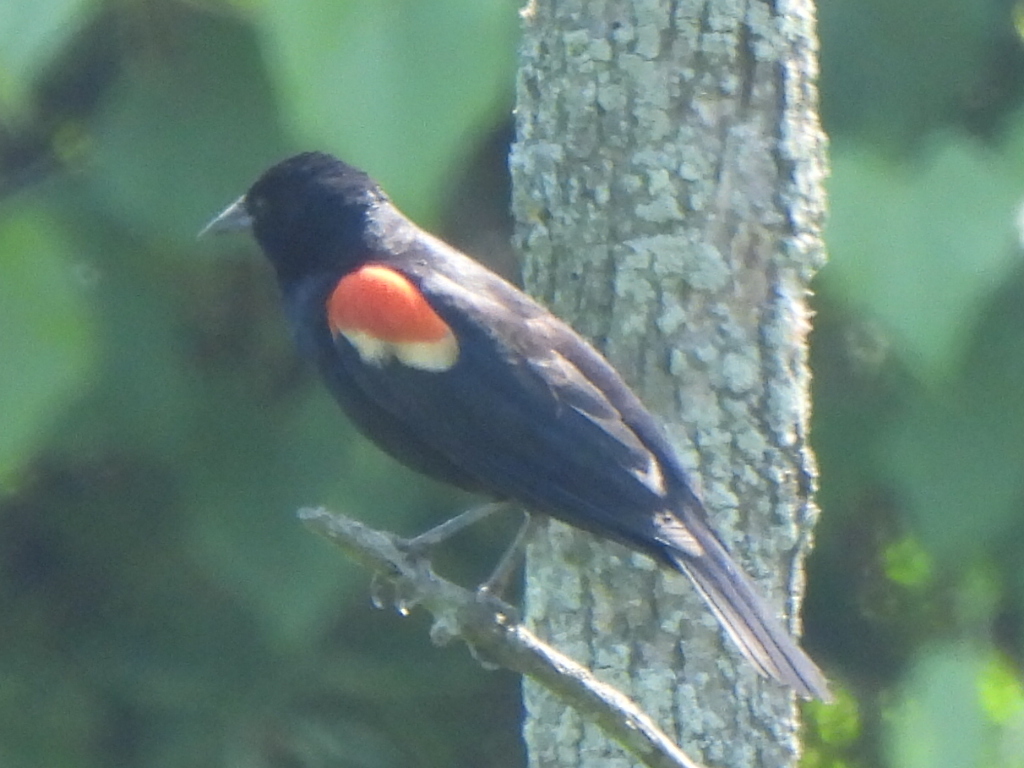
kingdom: Animalia
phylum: Chordata
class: Aves
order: Passeriformes
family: Icteridae
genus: Agelaius
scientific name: Agelaius phoeniceus
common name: Red-winged blackbird
